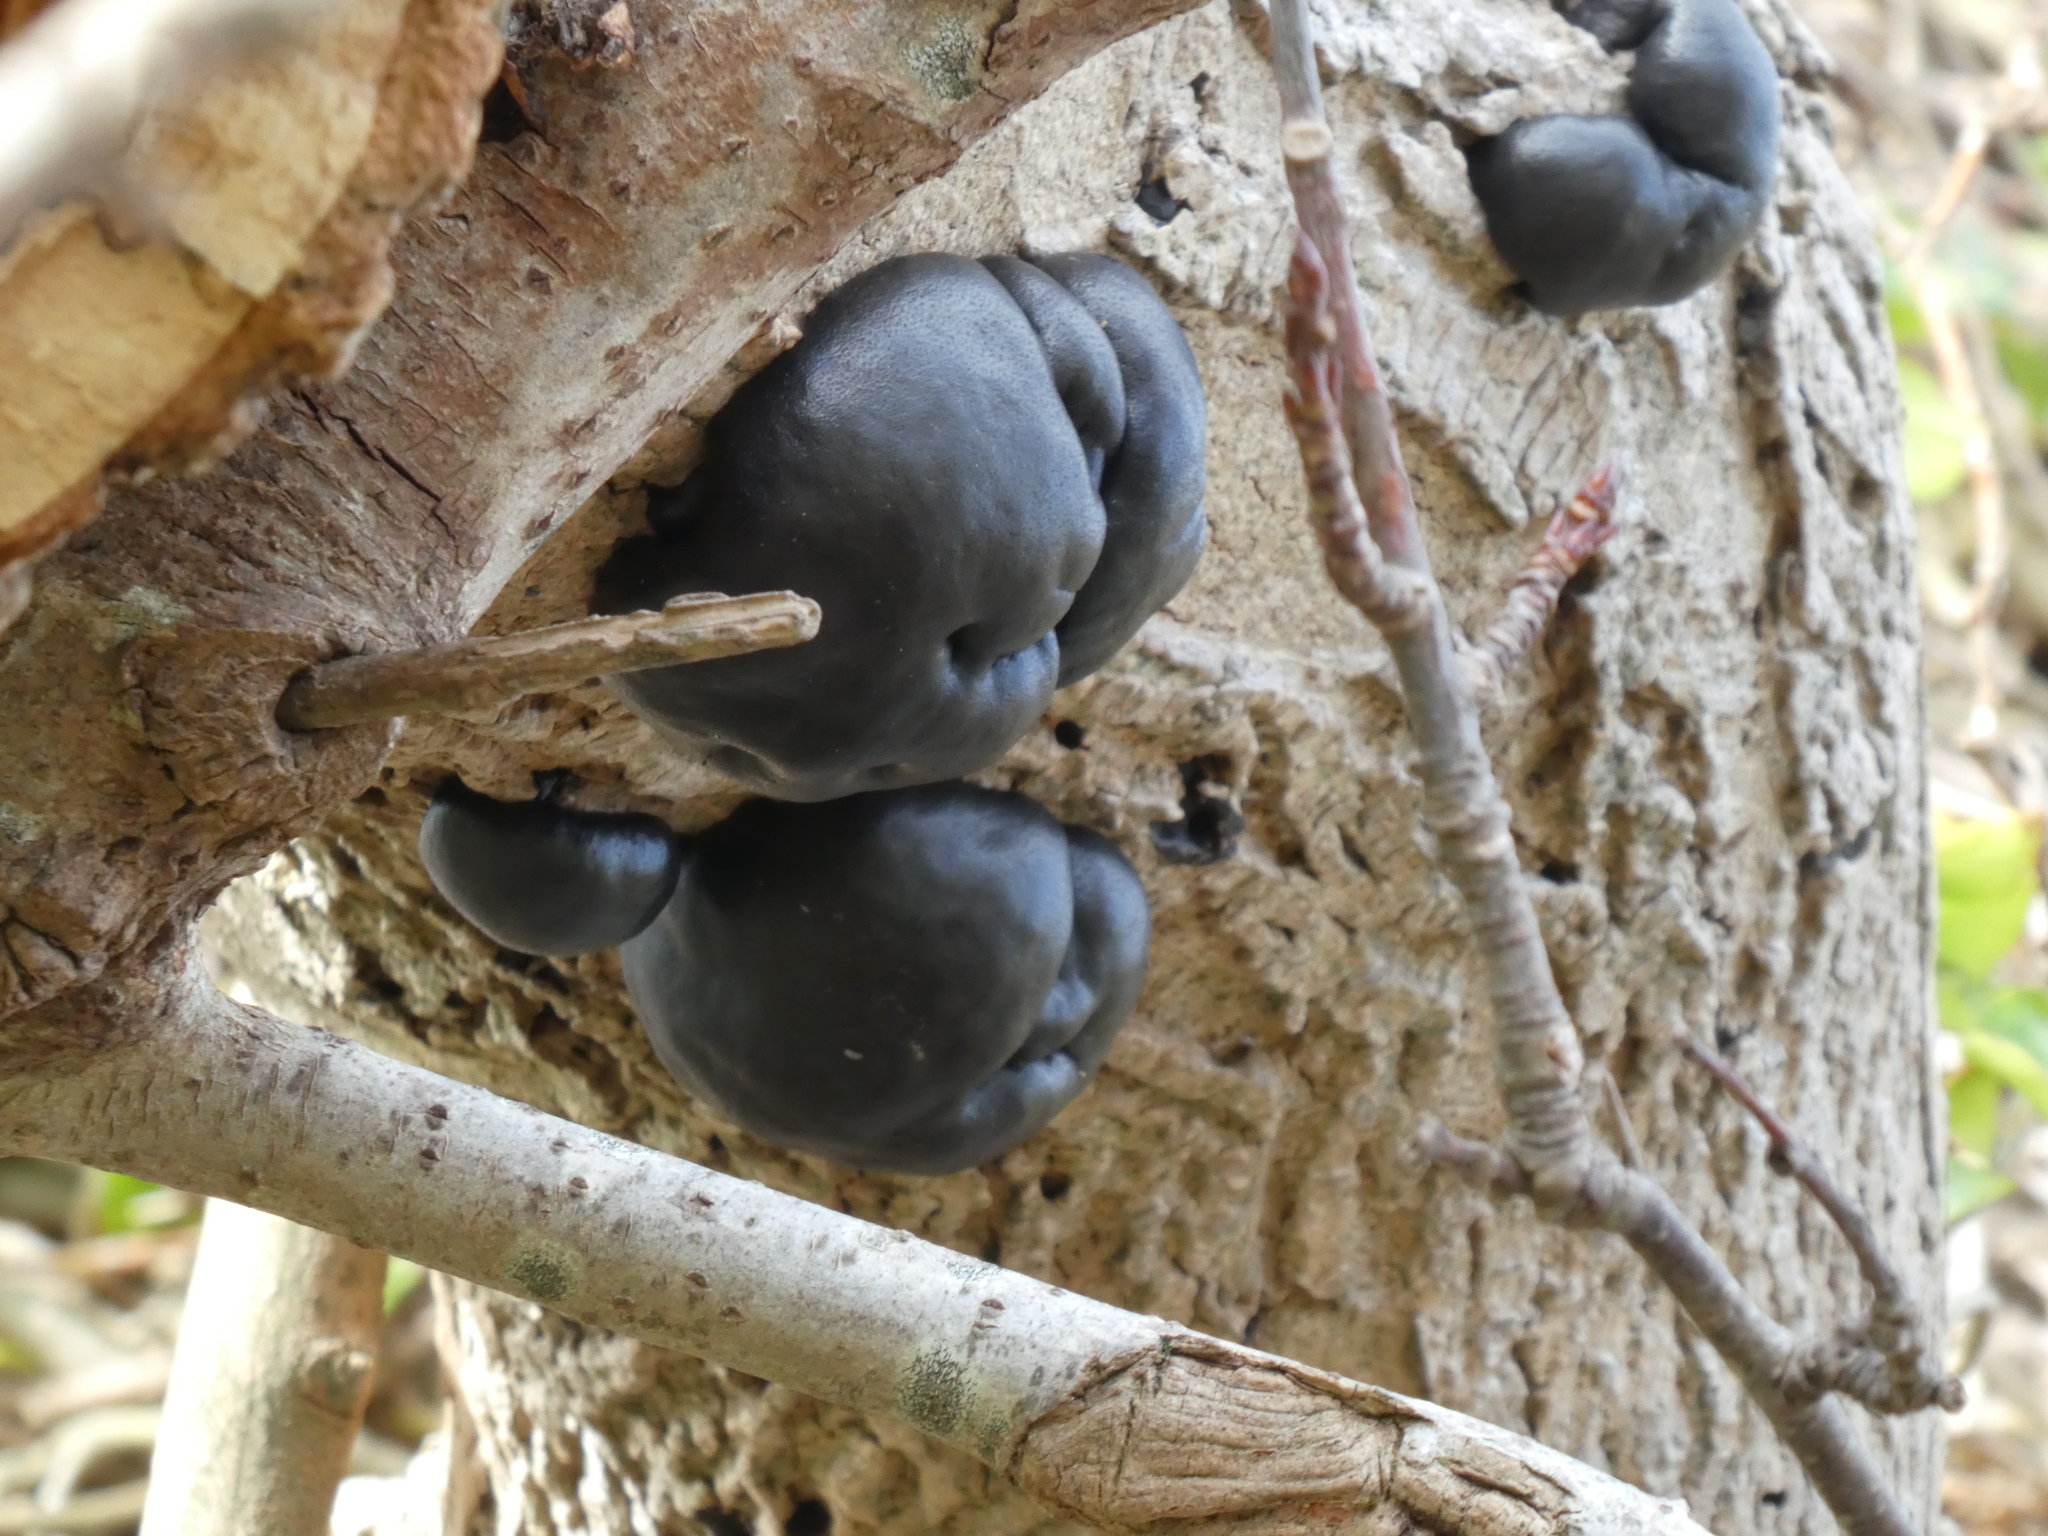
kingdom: Fungi
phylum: Ascomycota
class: Sordariomycetes
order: Xylariales
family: Hypoxylaceae
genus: Daldinia
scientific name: Daldinia concentrica
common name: Cramp balls
